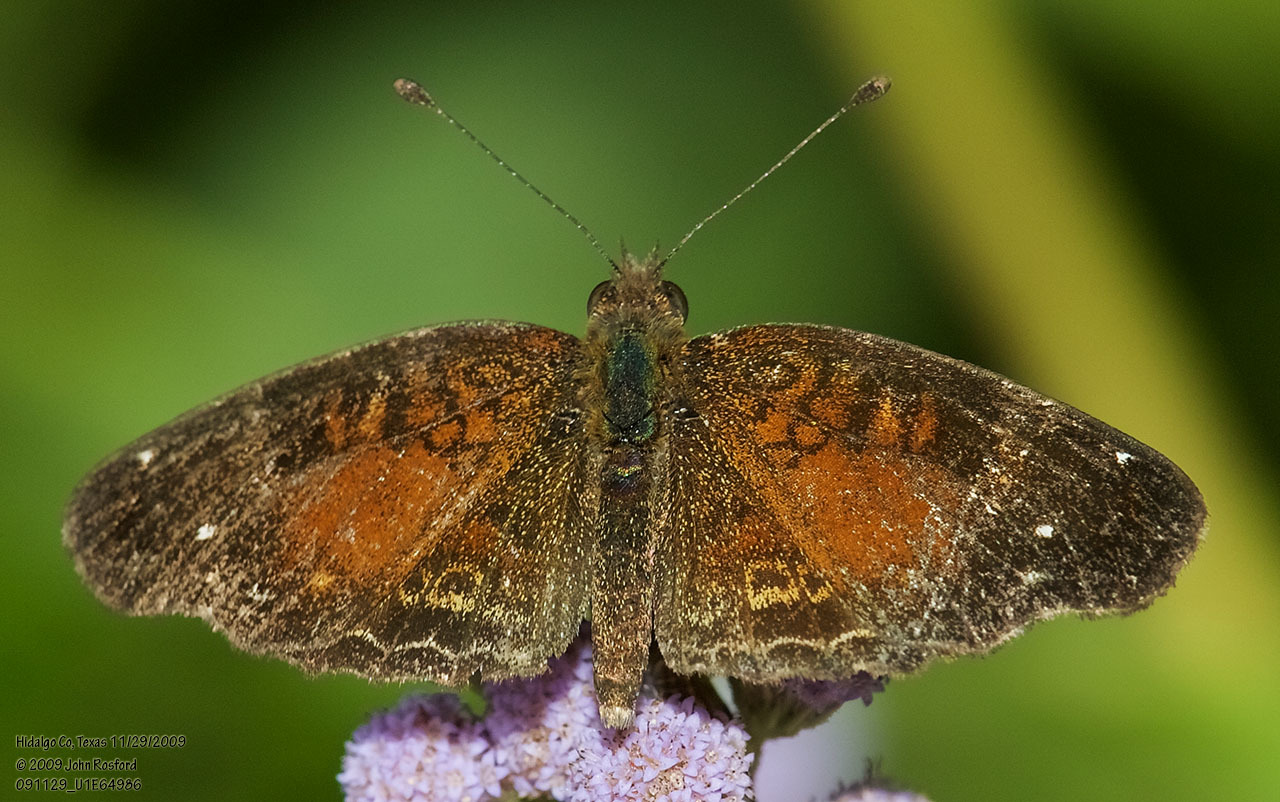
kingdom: Animalia
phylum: Arthropoda
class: Insecta
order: Lepidoptera
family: Nymphalidae
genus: Anthanassa
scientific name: Anthanassa argentea
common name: Chestnut crescent
